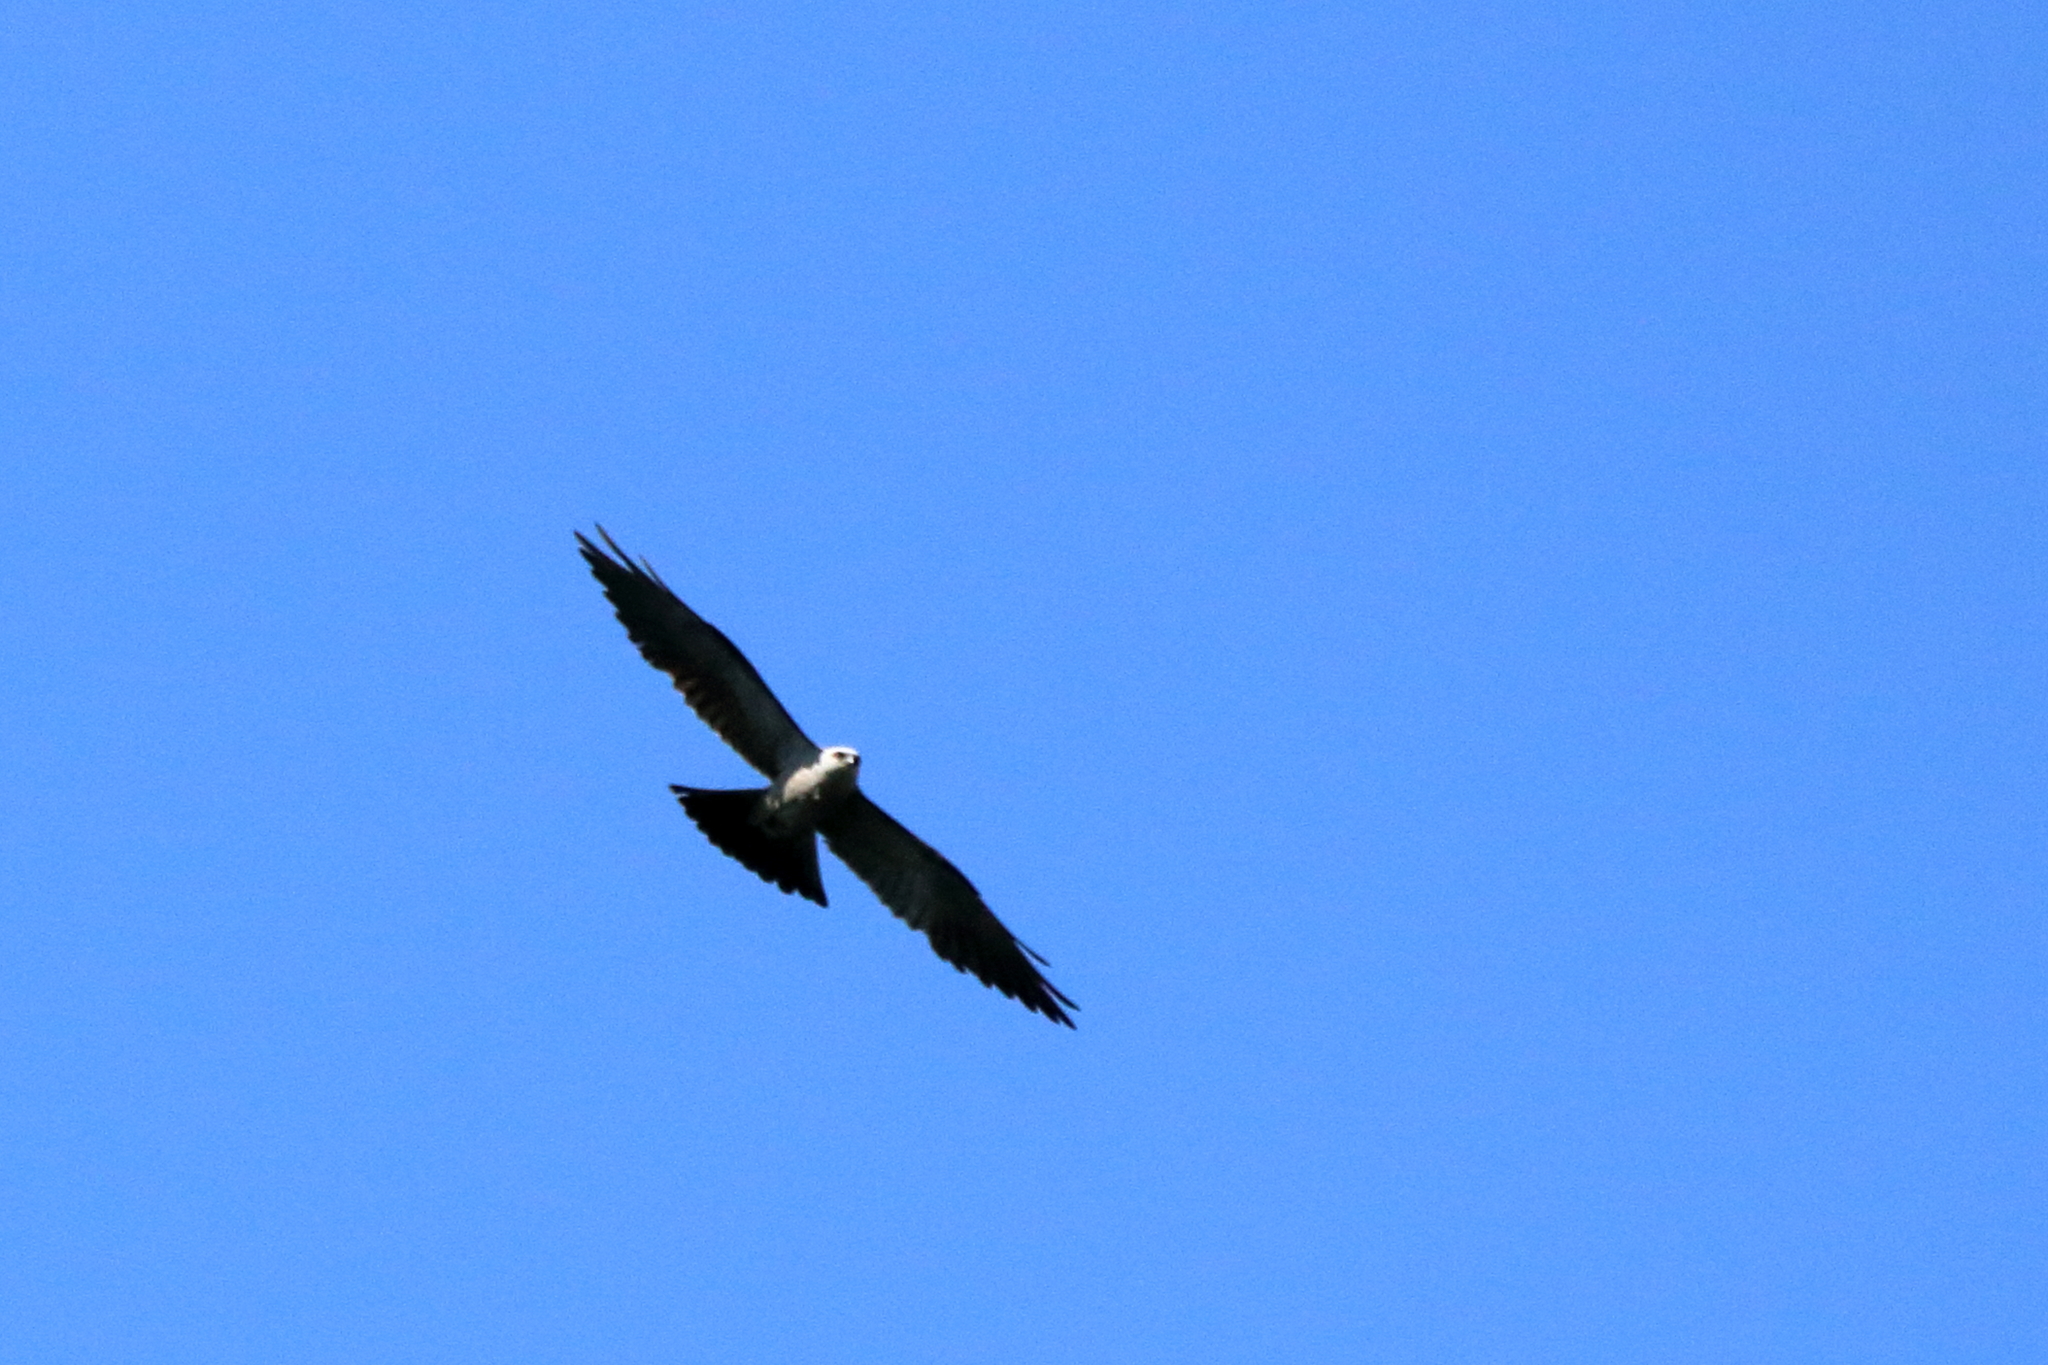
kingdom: Animalia
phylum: Chordata
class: Aves
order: Accipitriformes
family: Accipitridae
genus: Ictinia
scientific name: Ictinia mississippiensis
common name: Mississippi kite
